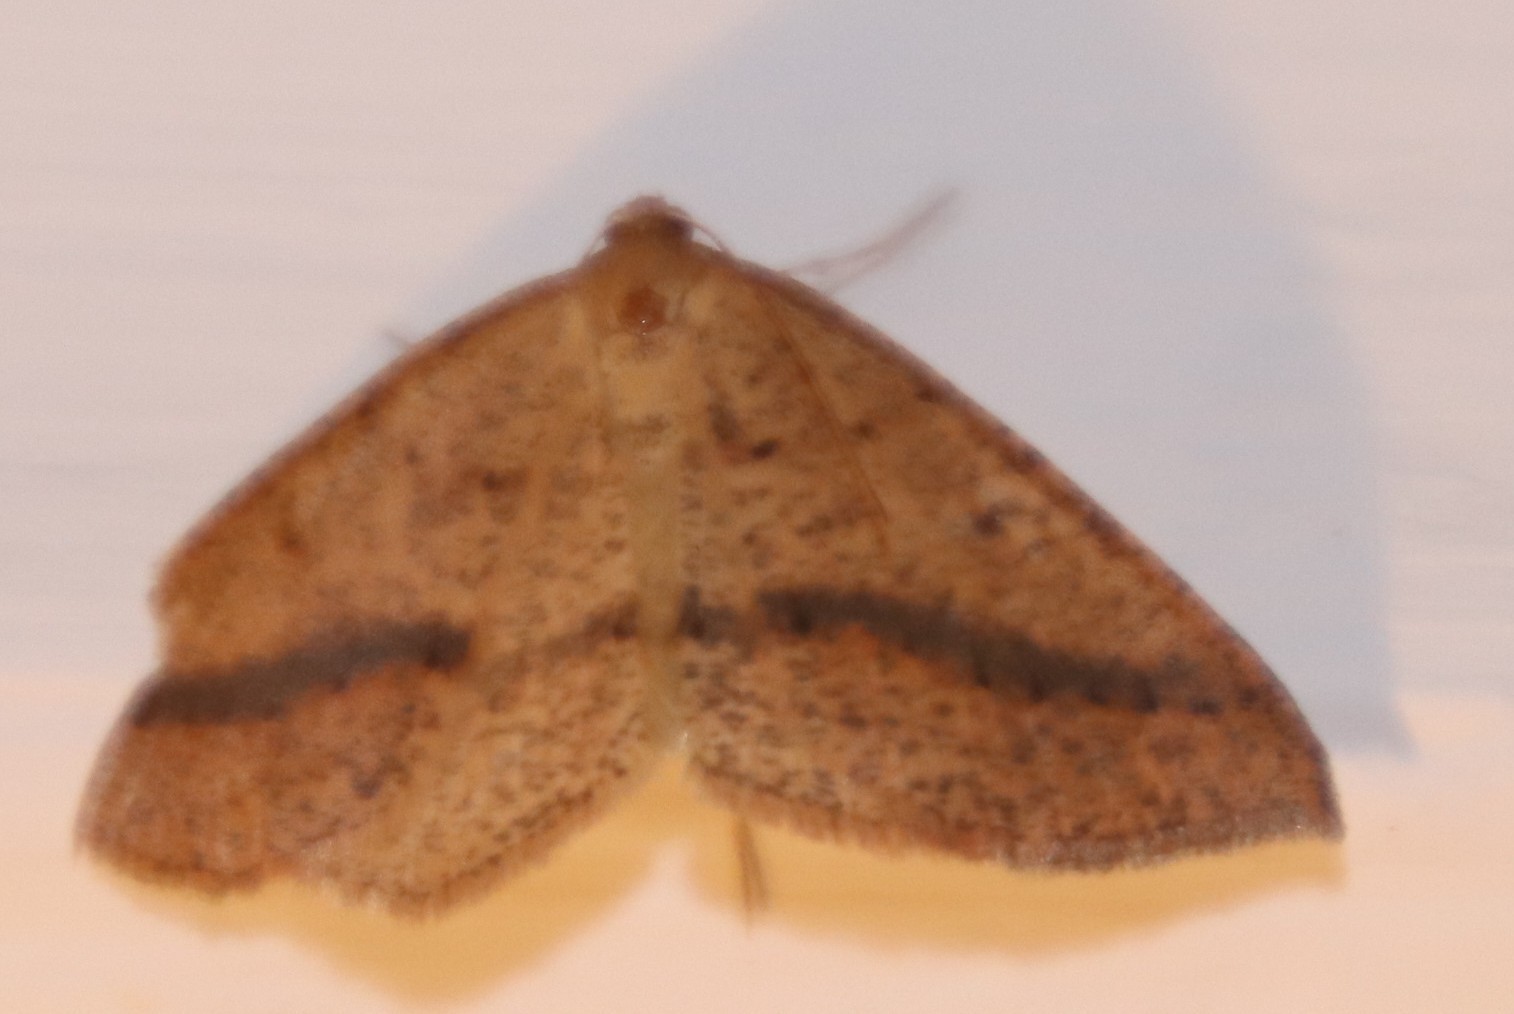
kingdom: Animalia
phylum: Arthropoda
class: Insecta
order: Lepidoptera
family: Geometridae
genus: Palaeaspilates
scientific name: Palaeaspilates inoffensa
